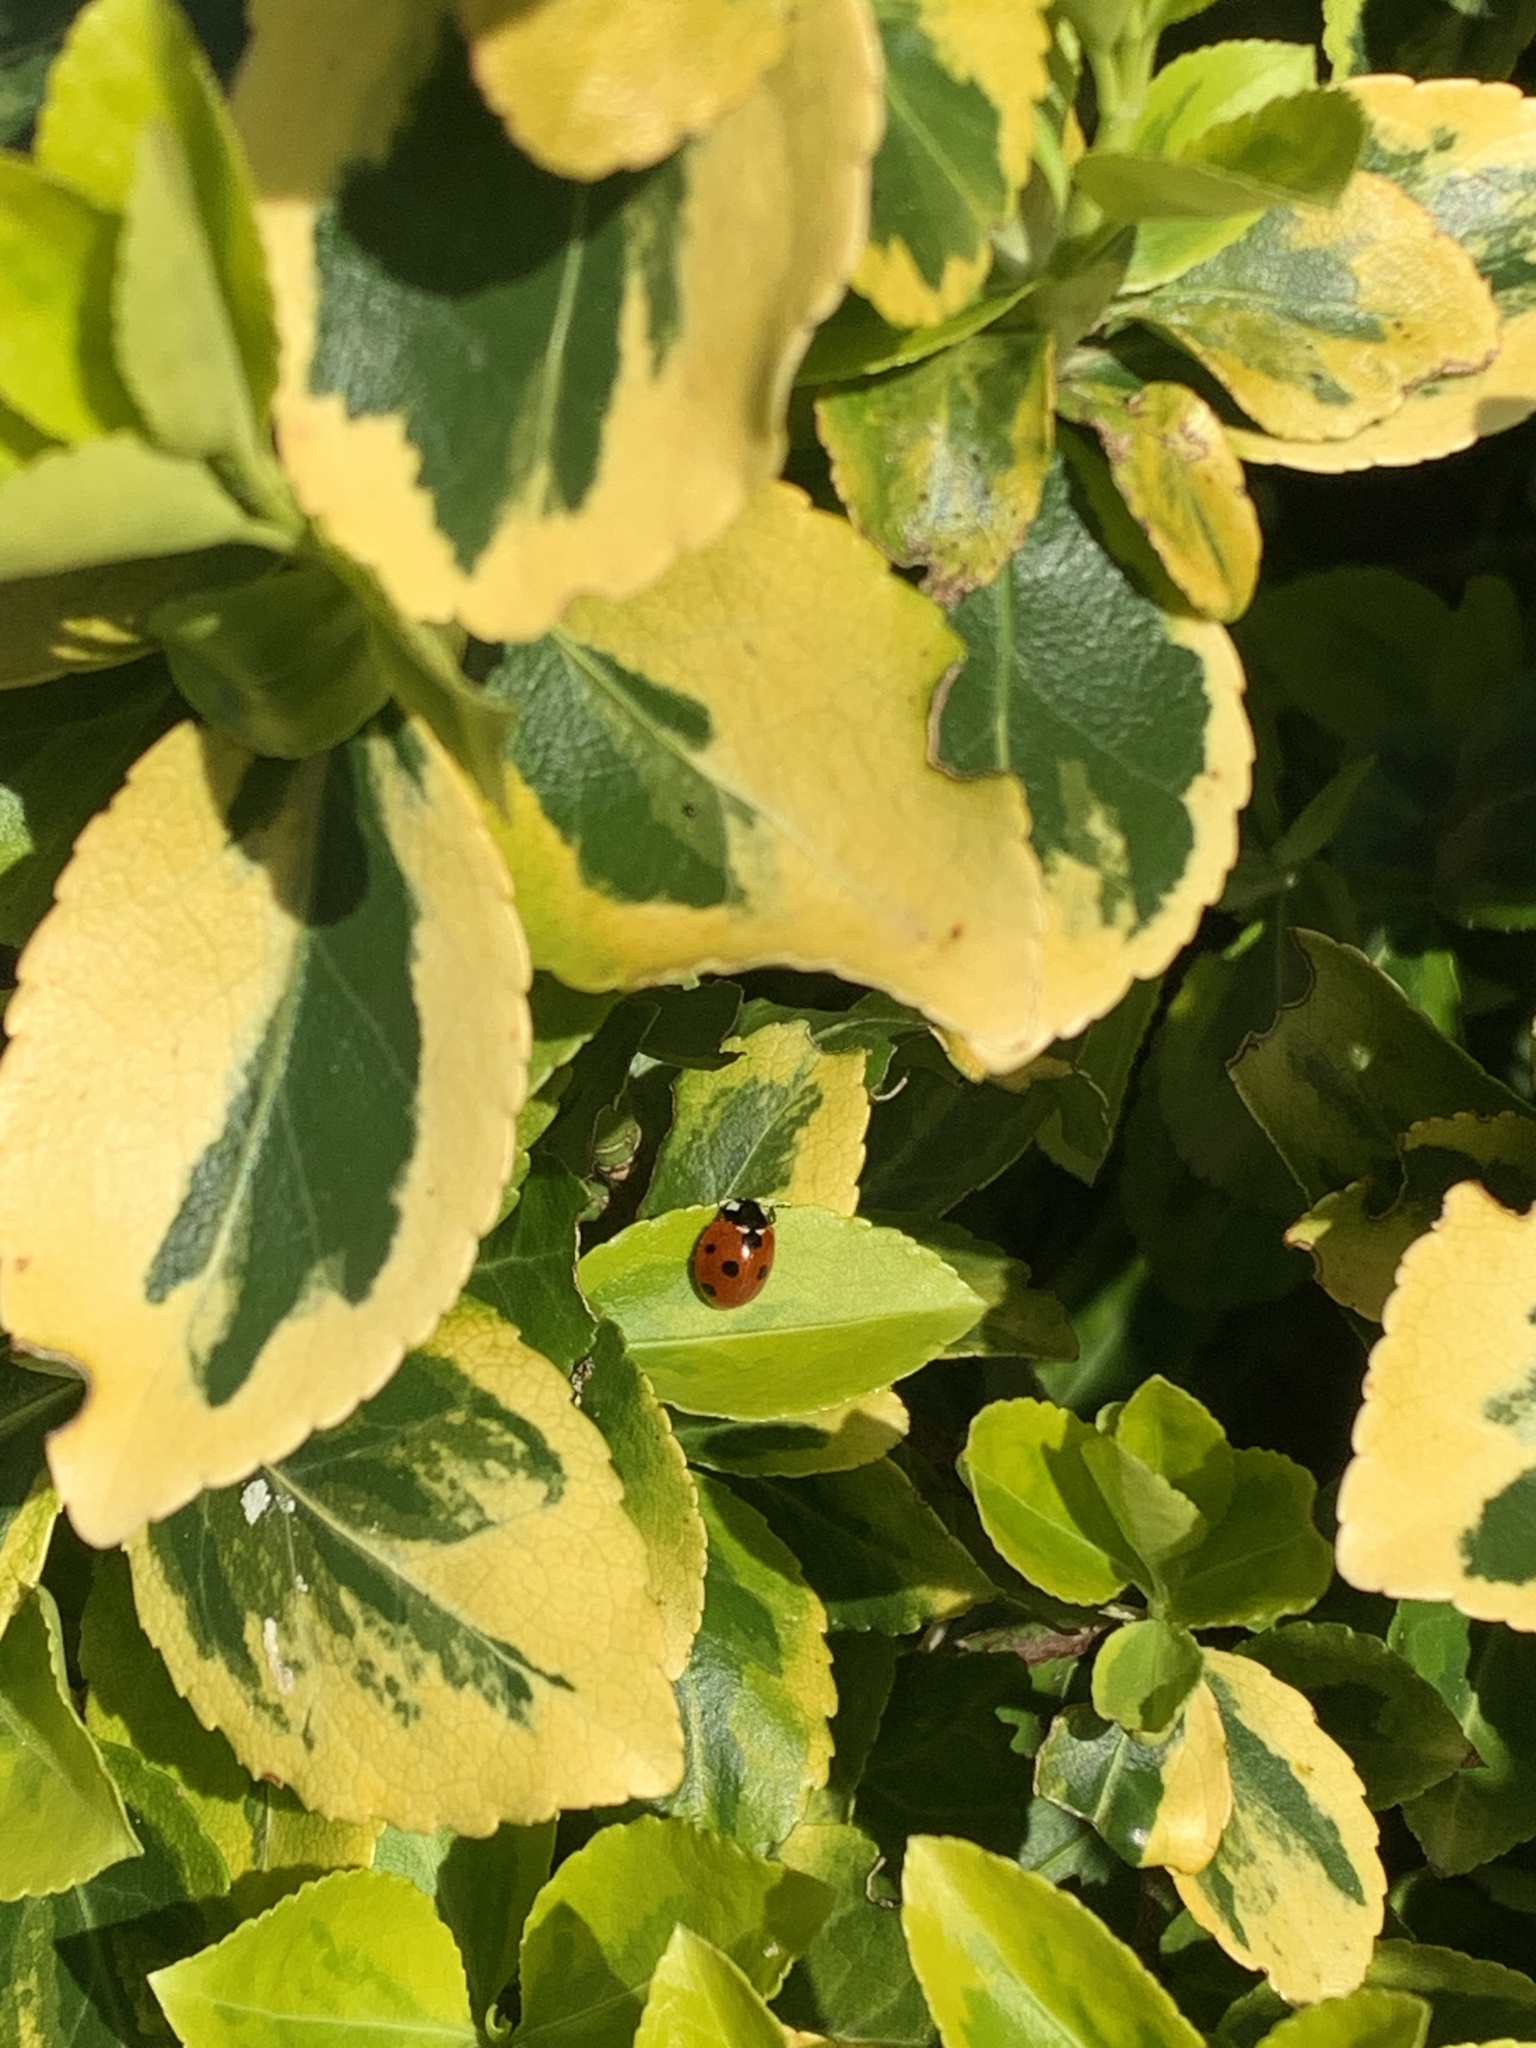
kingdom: Animalia
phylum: Arthropoda
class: Insecta
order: Coleoptera
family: Coccinellidae
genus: Coccinella
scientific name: Coccinella septempunctata
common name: Sevenspotted lady beetle
